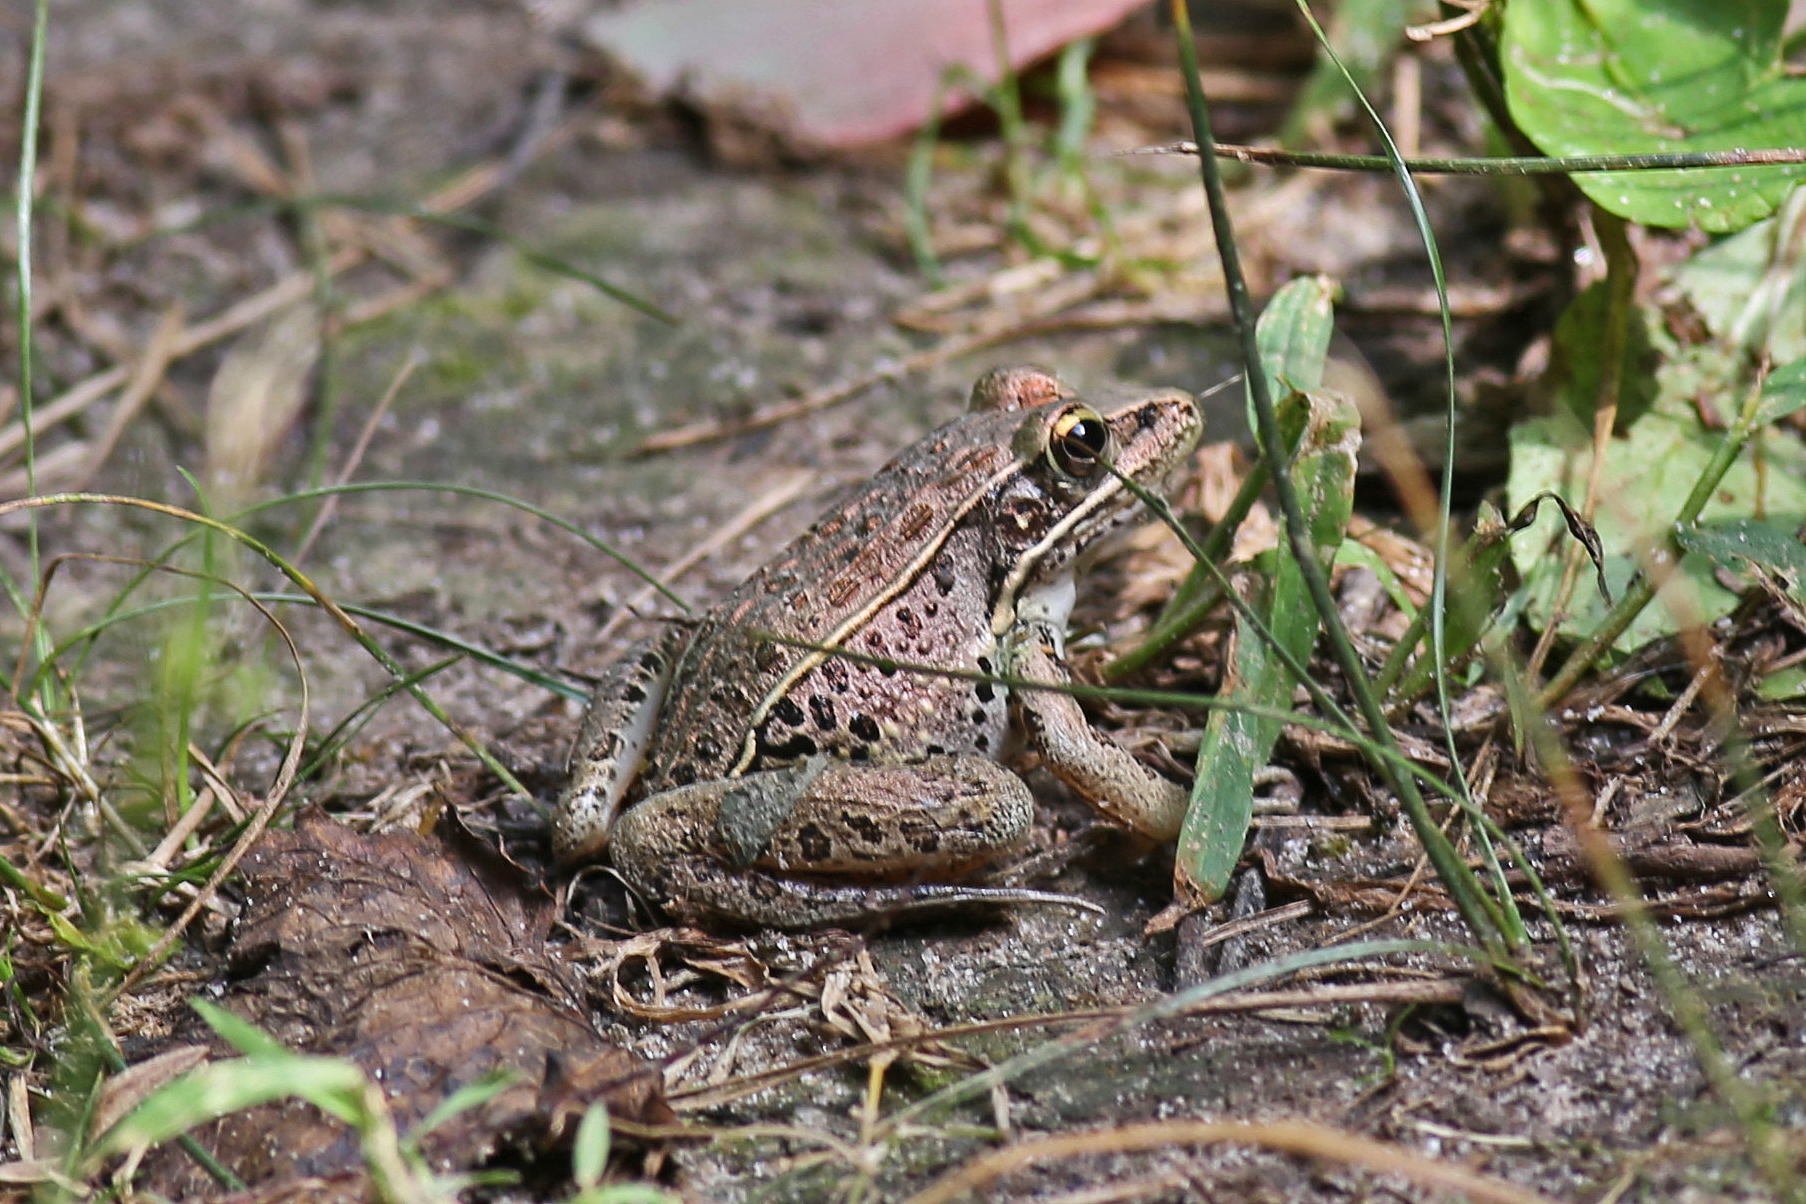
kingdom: Animalia
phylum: Chordata
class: Amphibia
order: Anura
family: Ranidae
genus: Lithobates
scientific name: Lithobates sphenocephalus
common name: Southern leopard frog
